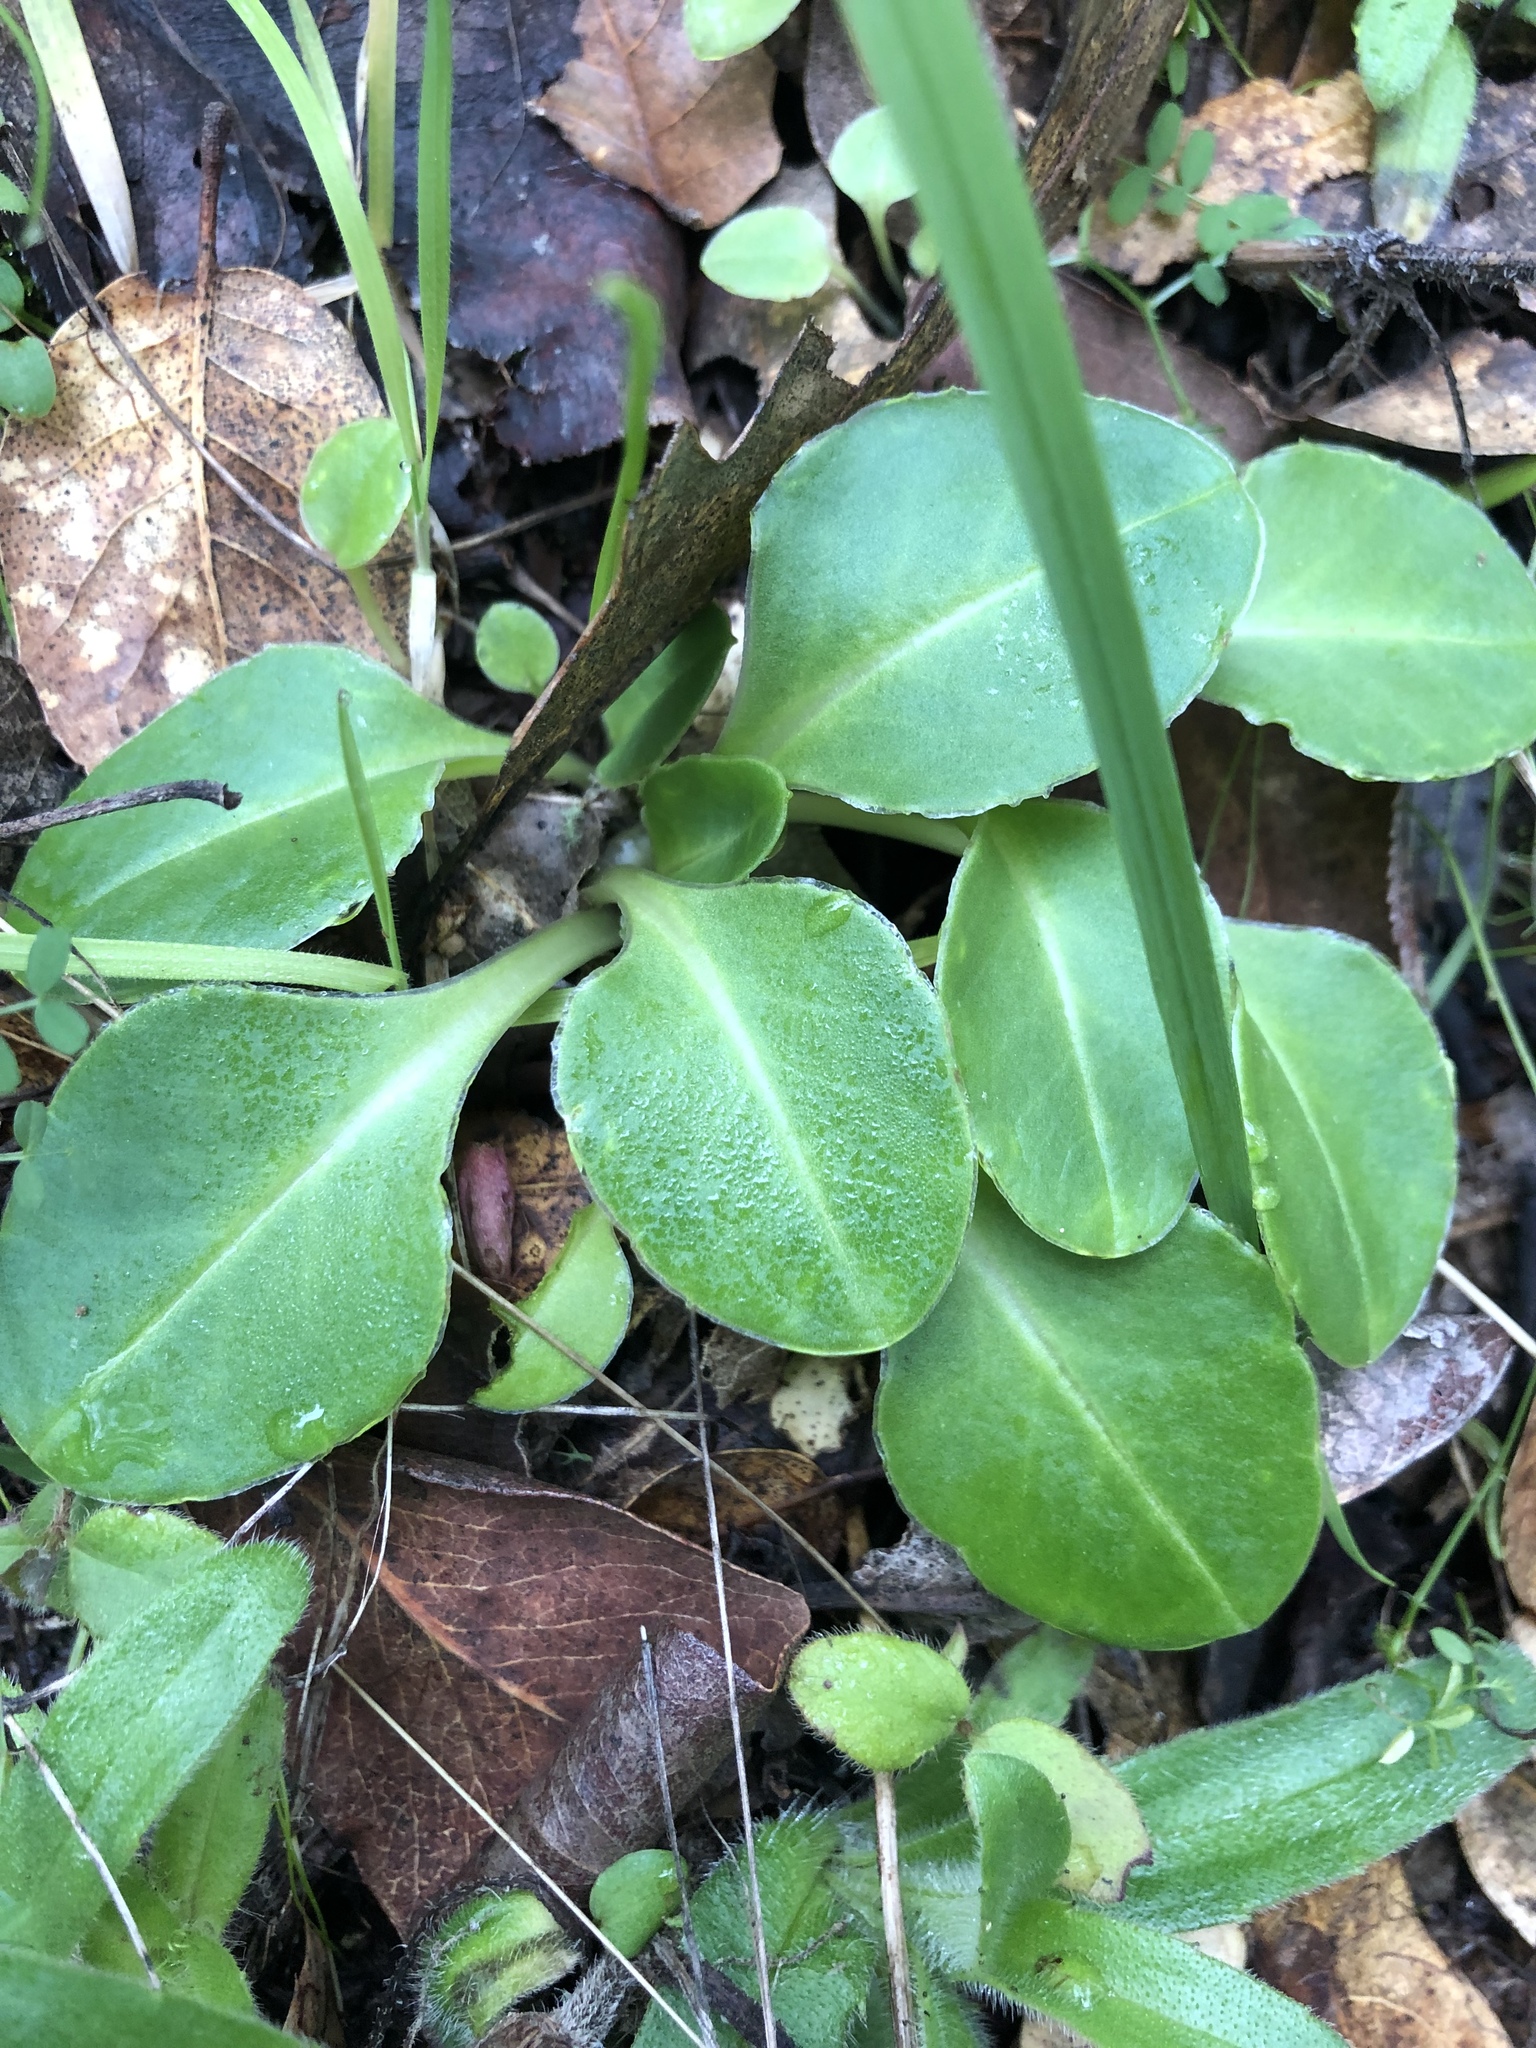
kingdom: Plantae
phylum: Tracheophyta
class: Magnoliopsida
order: Ericales
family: Primulaceae
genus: Dodecatheon
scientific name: Dodecatheon hendersonii
